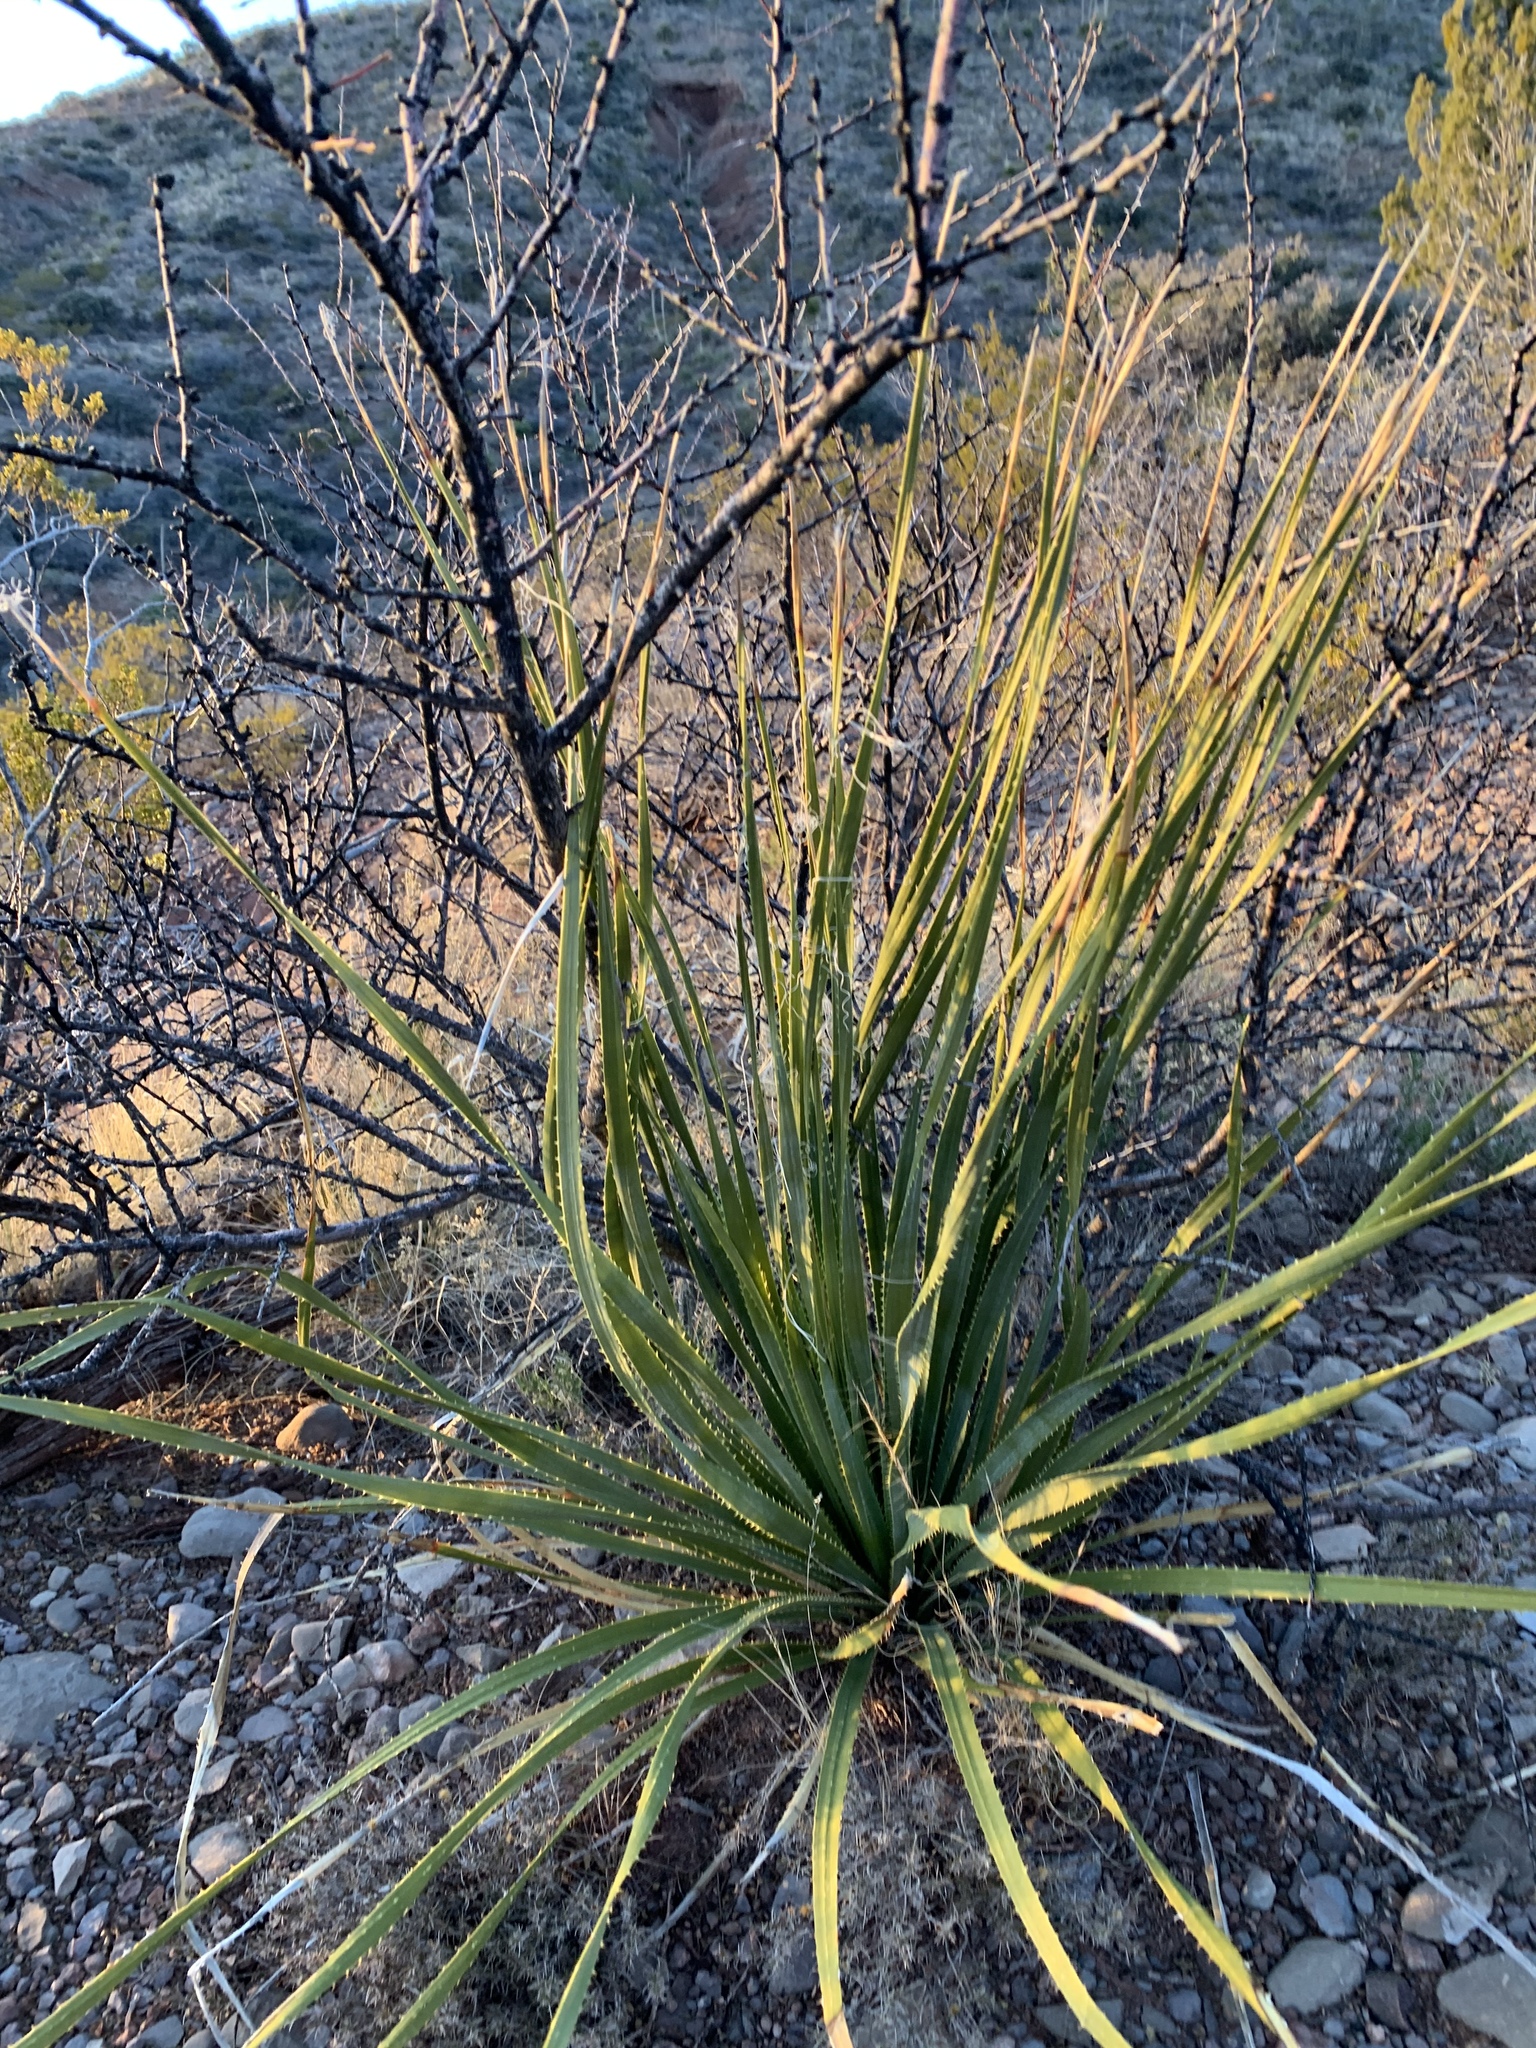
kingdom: Plantae
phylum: Tracheophyta
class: Liliopsida
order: Asparagales
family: Asparagaceae
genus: Dasylirion
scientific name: Dasylirion wheeleri
